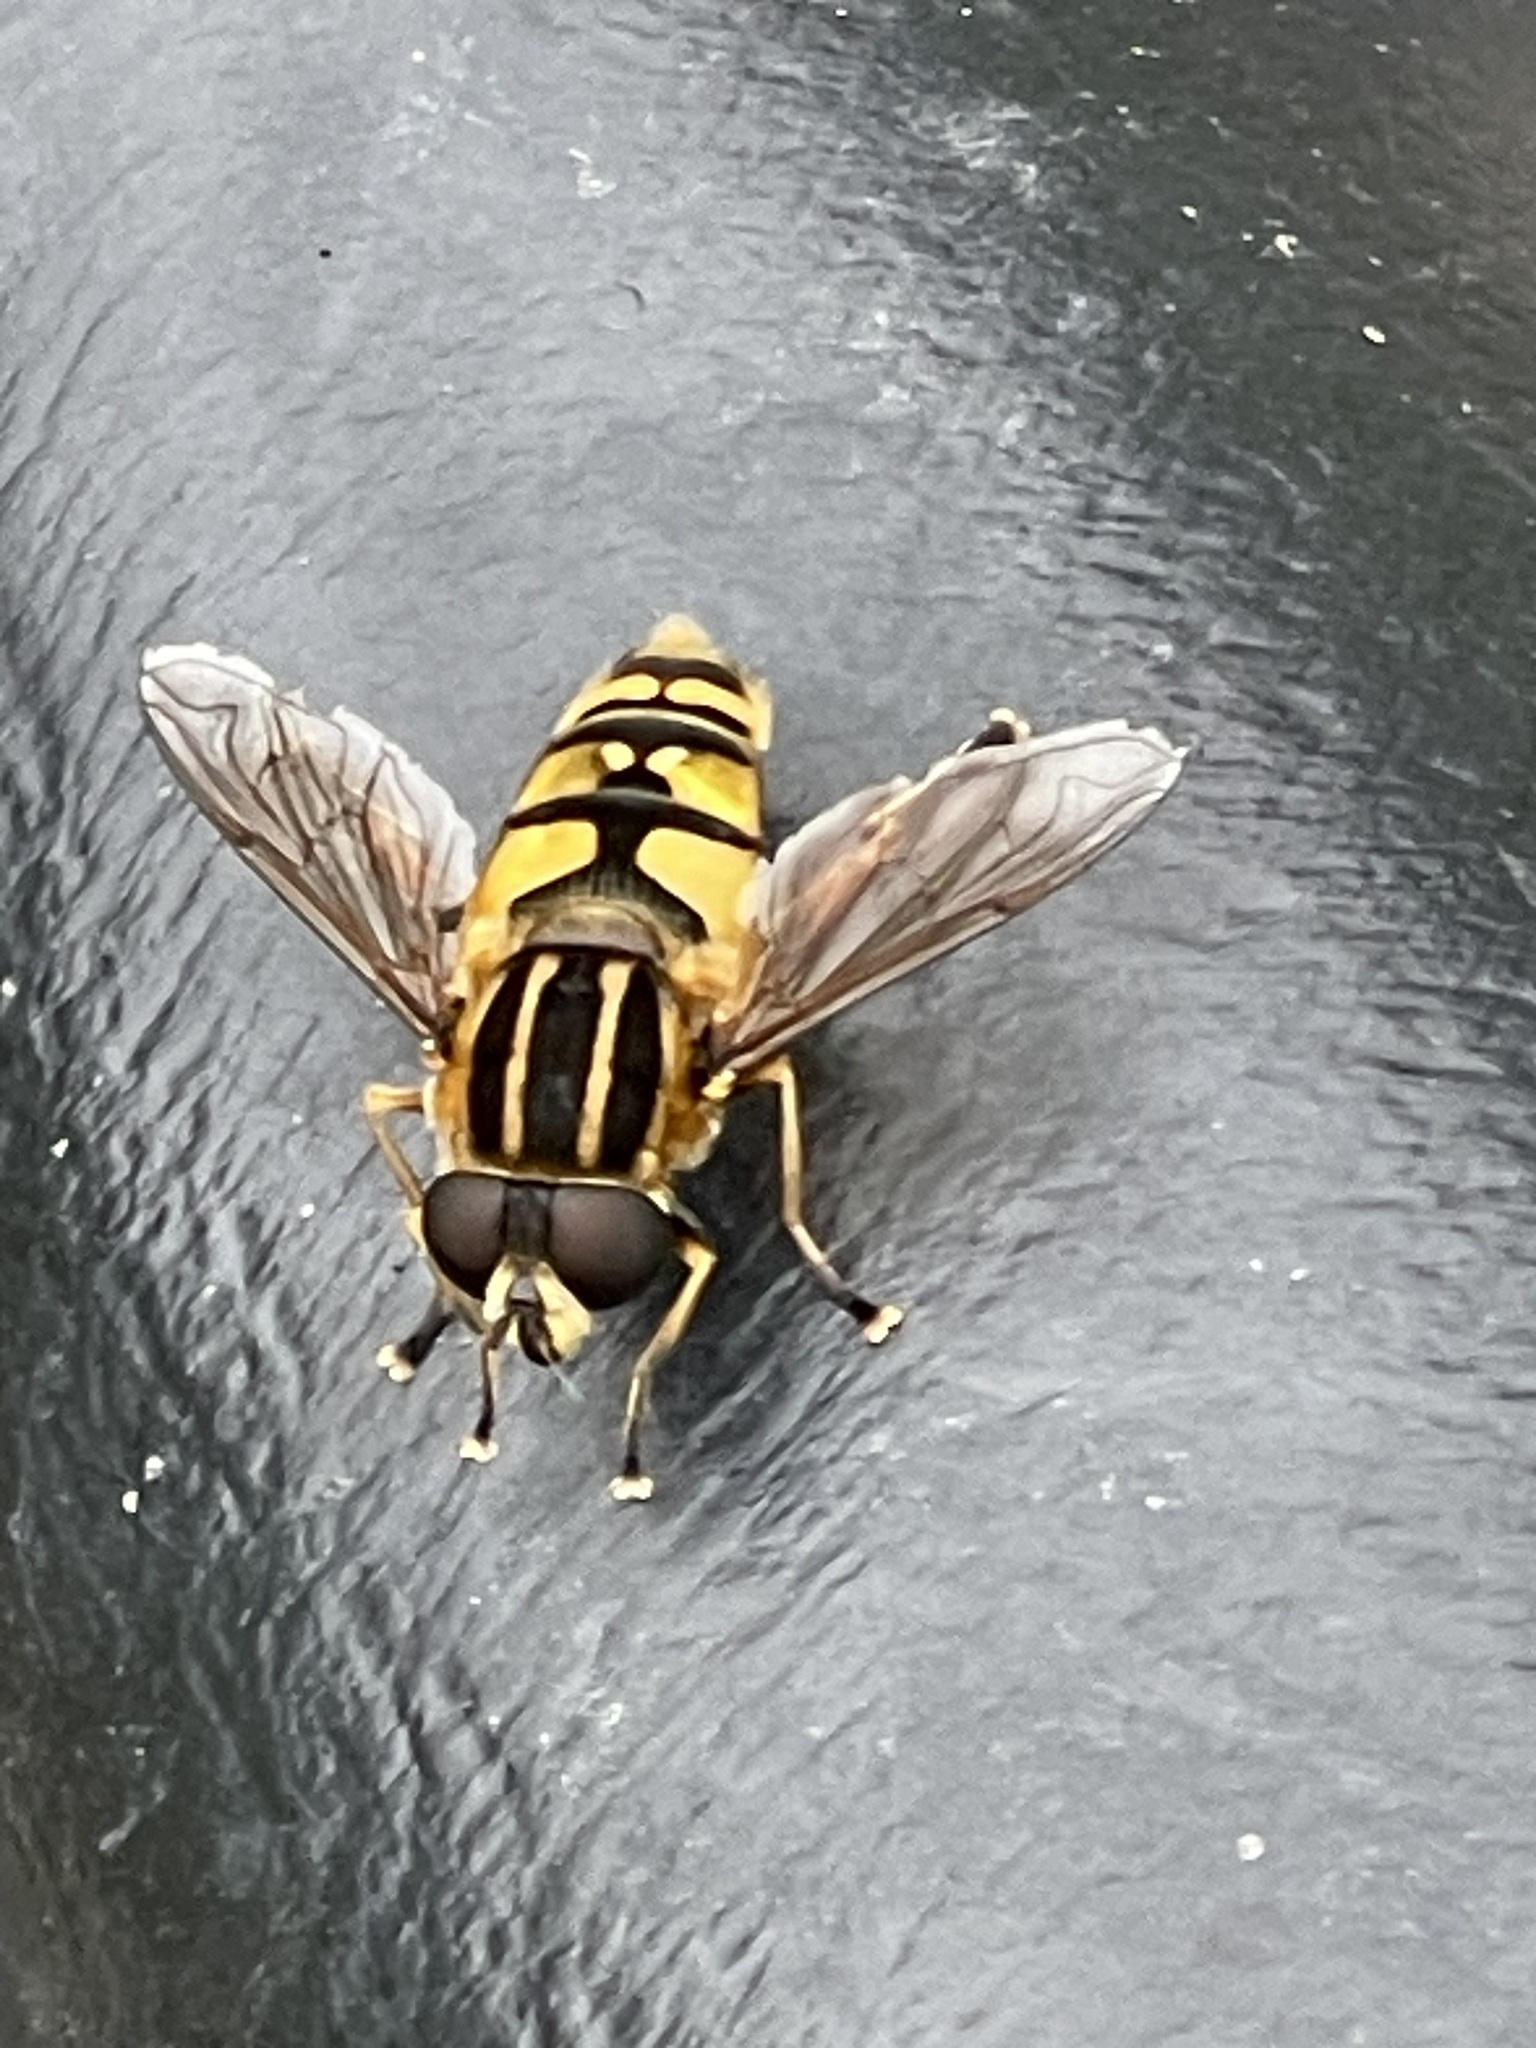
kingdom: Animalia
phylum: Arthropoda
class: Insecta
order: Diptera
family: Syrphidae
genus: Helophilus
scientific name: Helophilus pendulus
